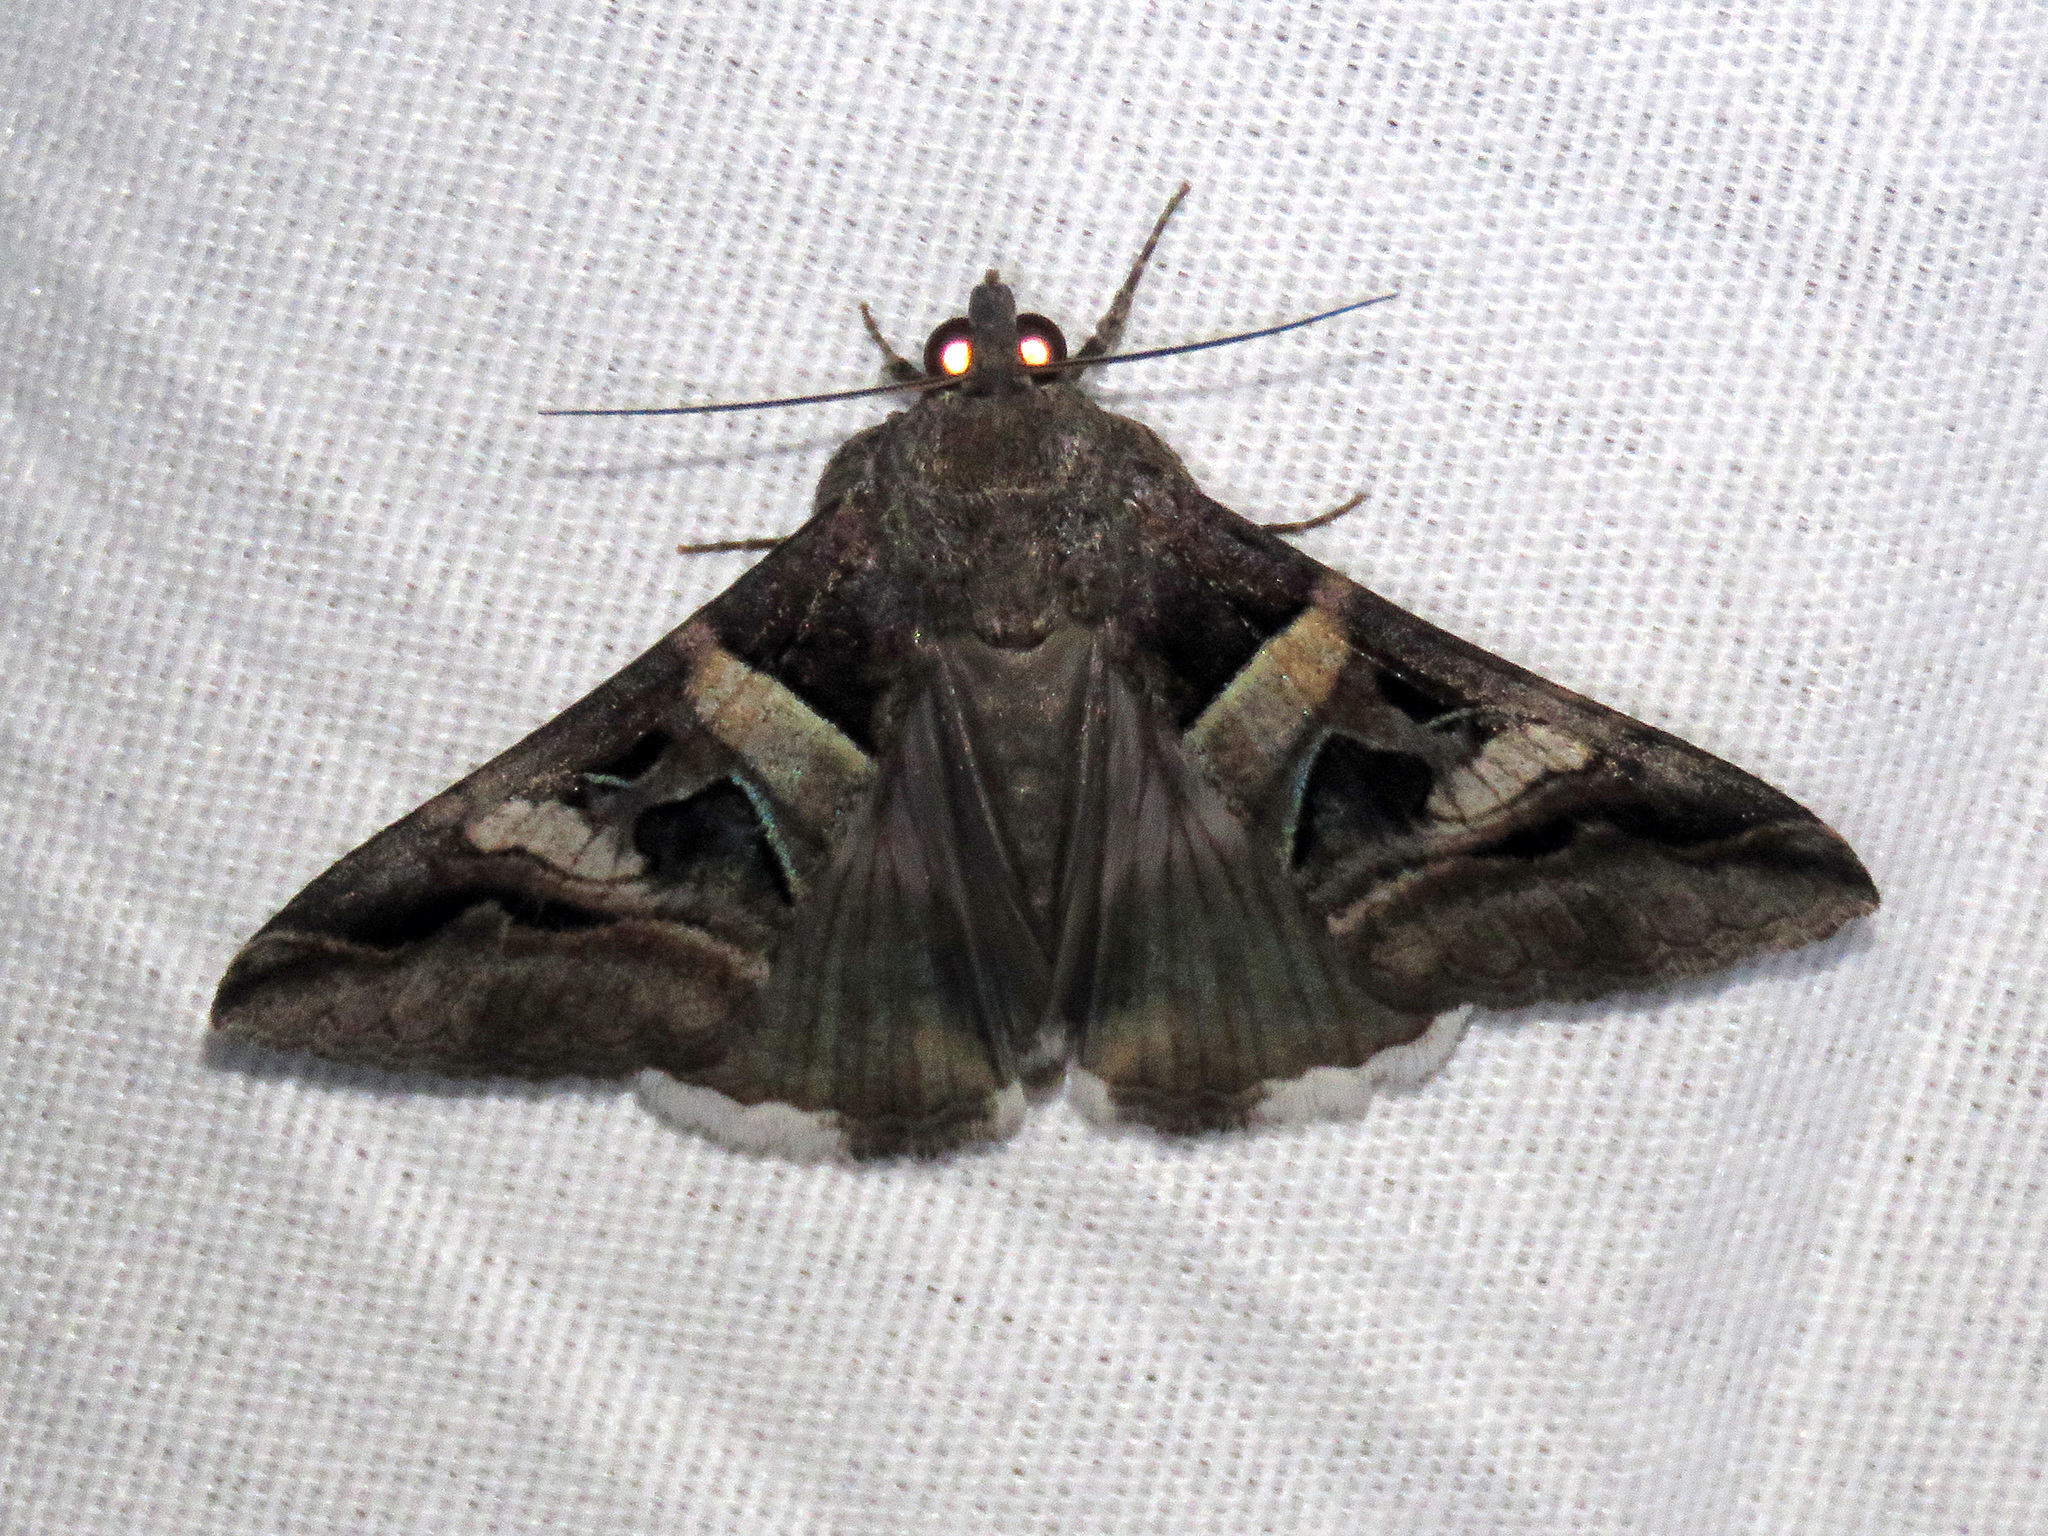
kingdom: Animalia
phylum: Arthropoda
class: Insecta
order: Lepidoptera
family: Erebidae
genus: Melipotis
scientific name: Melipotis perpendicularis
